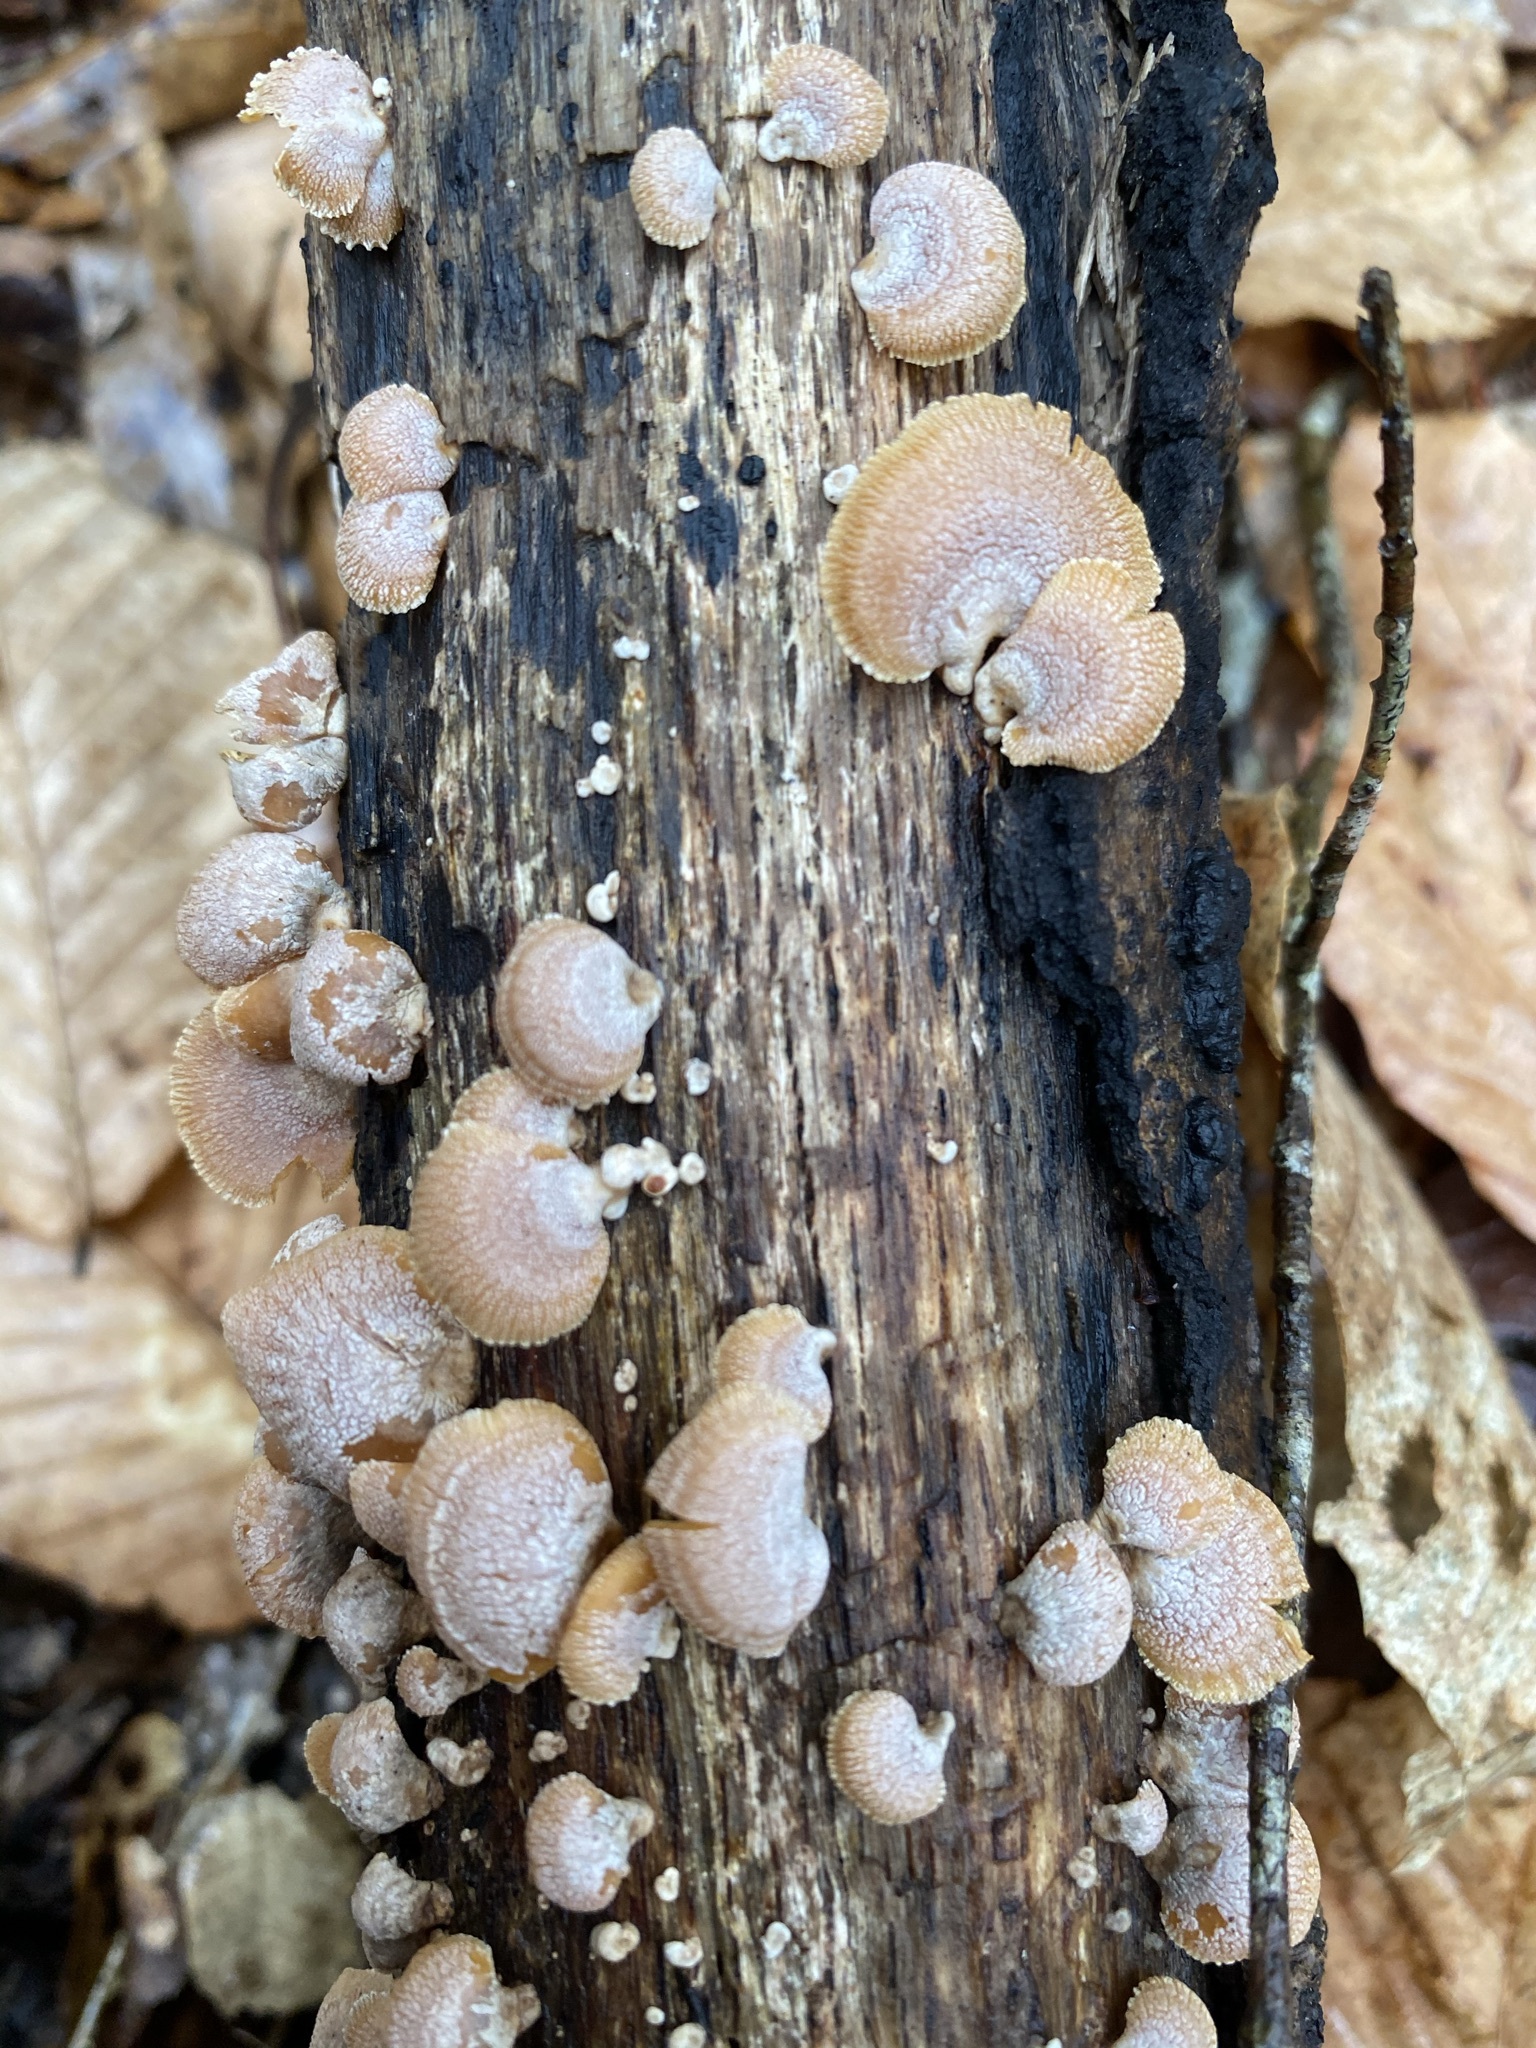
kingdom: Fungi
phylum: Basidiomycota
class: Agaricomycetes
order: Agaricales
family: Mycenaceae
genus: Panellus
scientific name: Panellus stipticus
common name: Bitter oysterling
